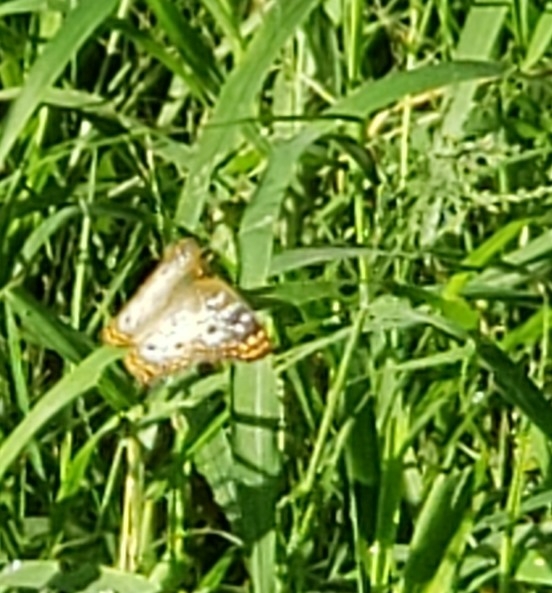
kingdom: Animalia
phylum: Arthropoda
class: Insecta
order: Lepidoptera
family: Nymphalidae
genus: Anartia
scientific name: Anartia jatrophae
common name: White peacock
